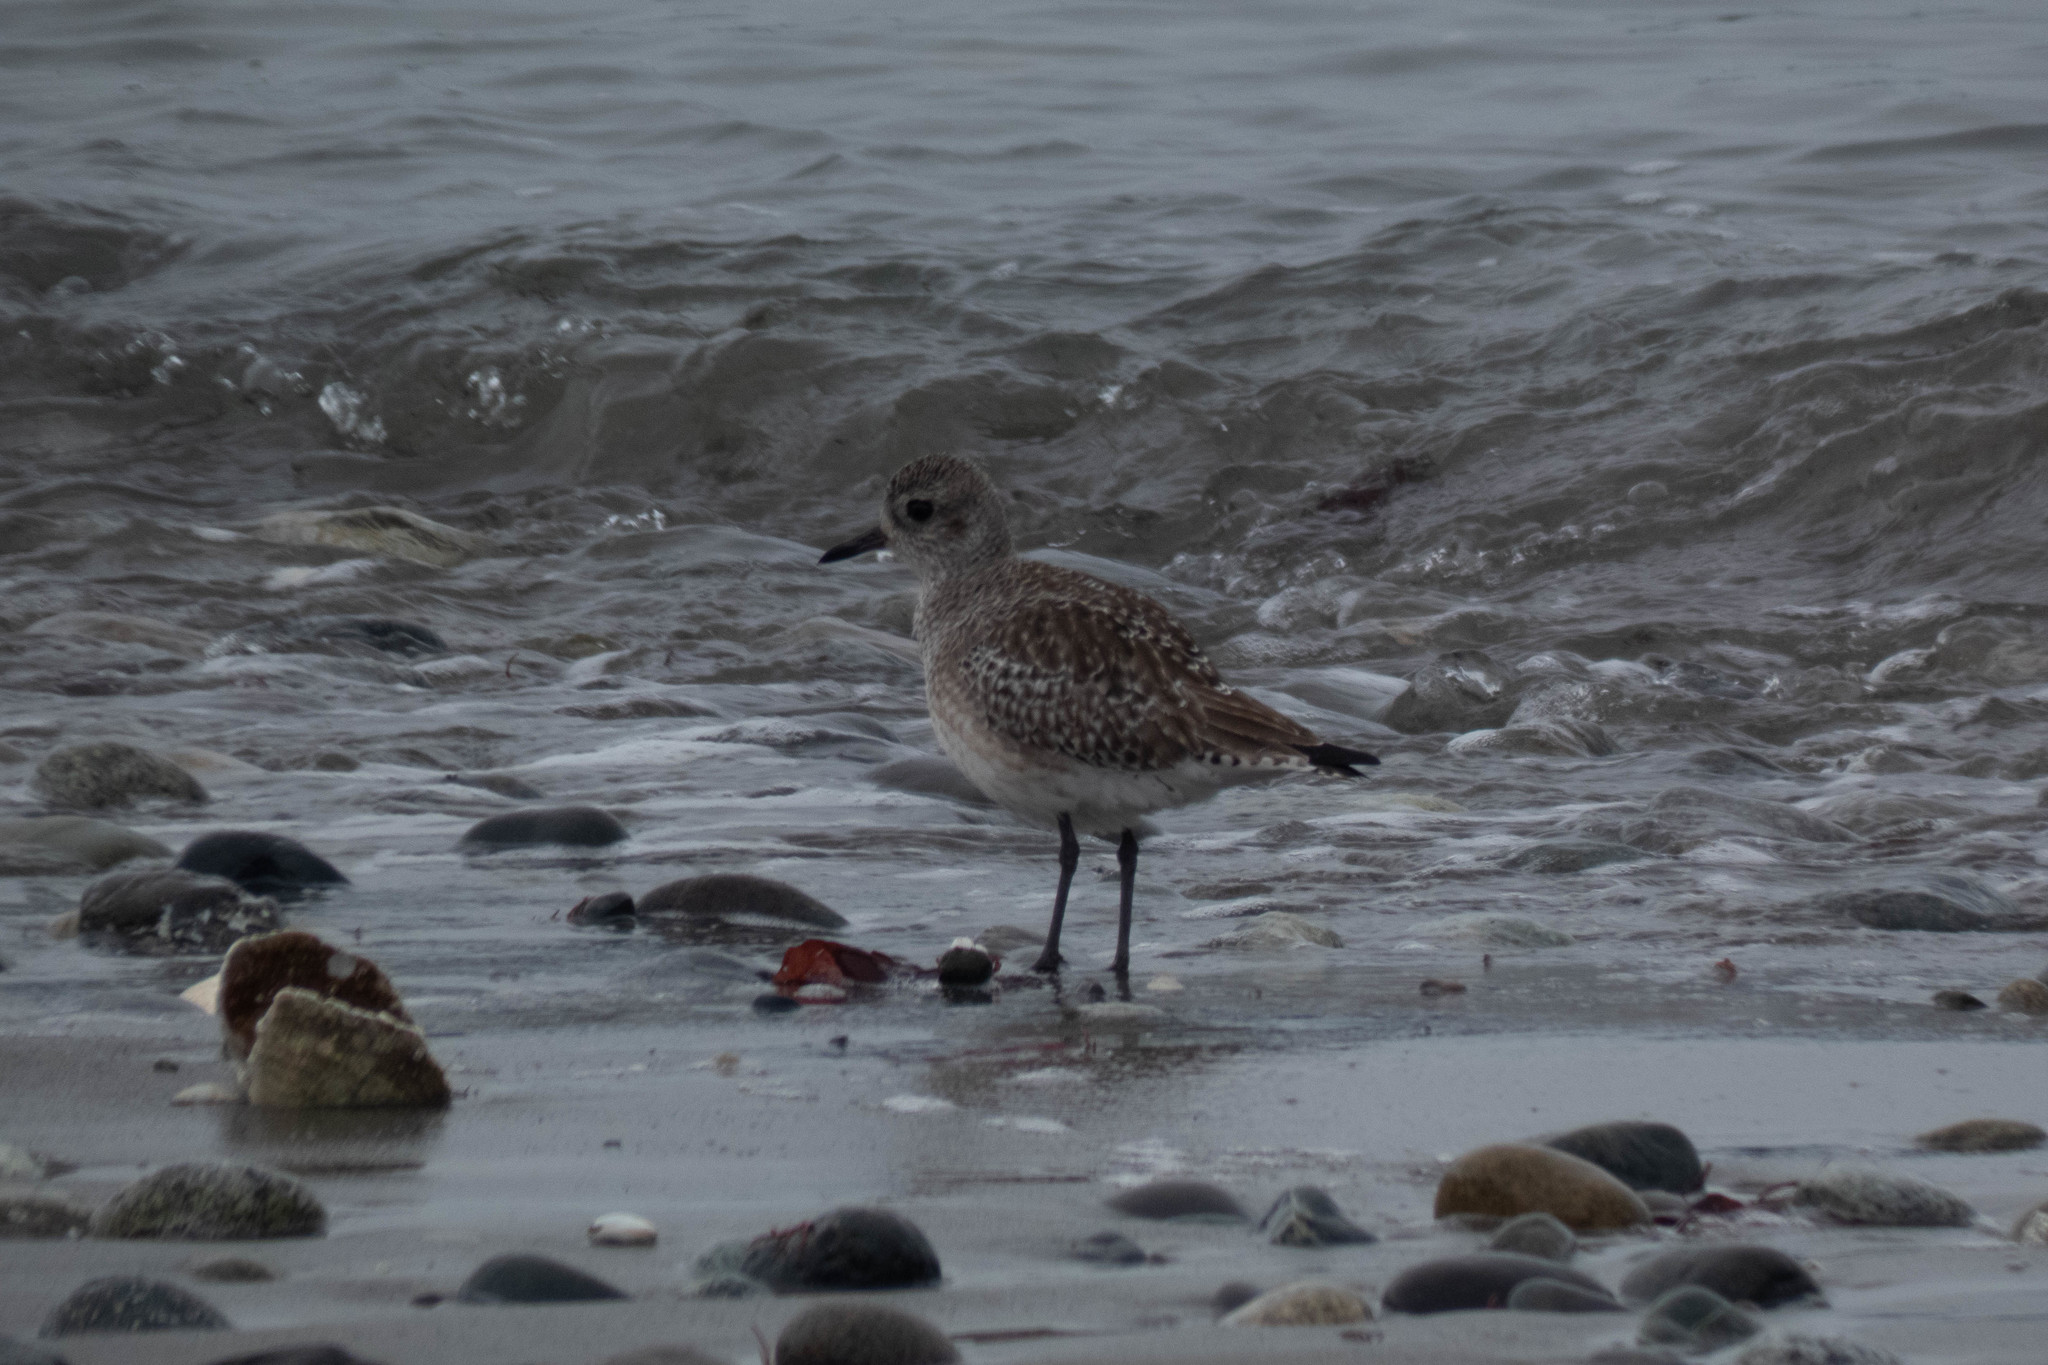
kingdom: Animalia
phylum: Chordata
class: Aves
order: Charadriiformes
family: Charadriidae
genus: Pluvialis
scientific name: Pluvialis squatarola
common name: Grey plover
